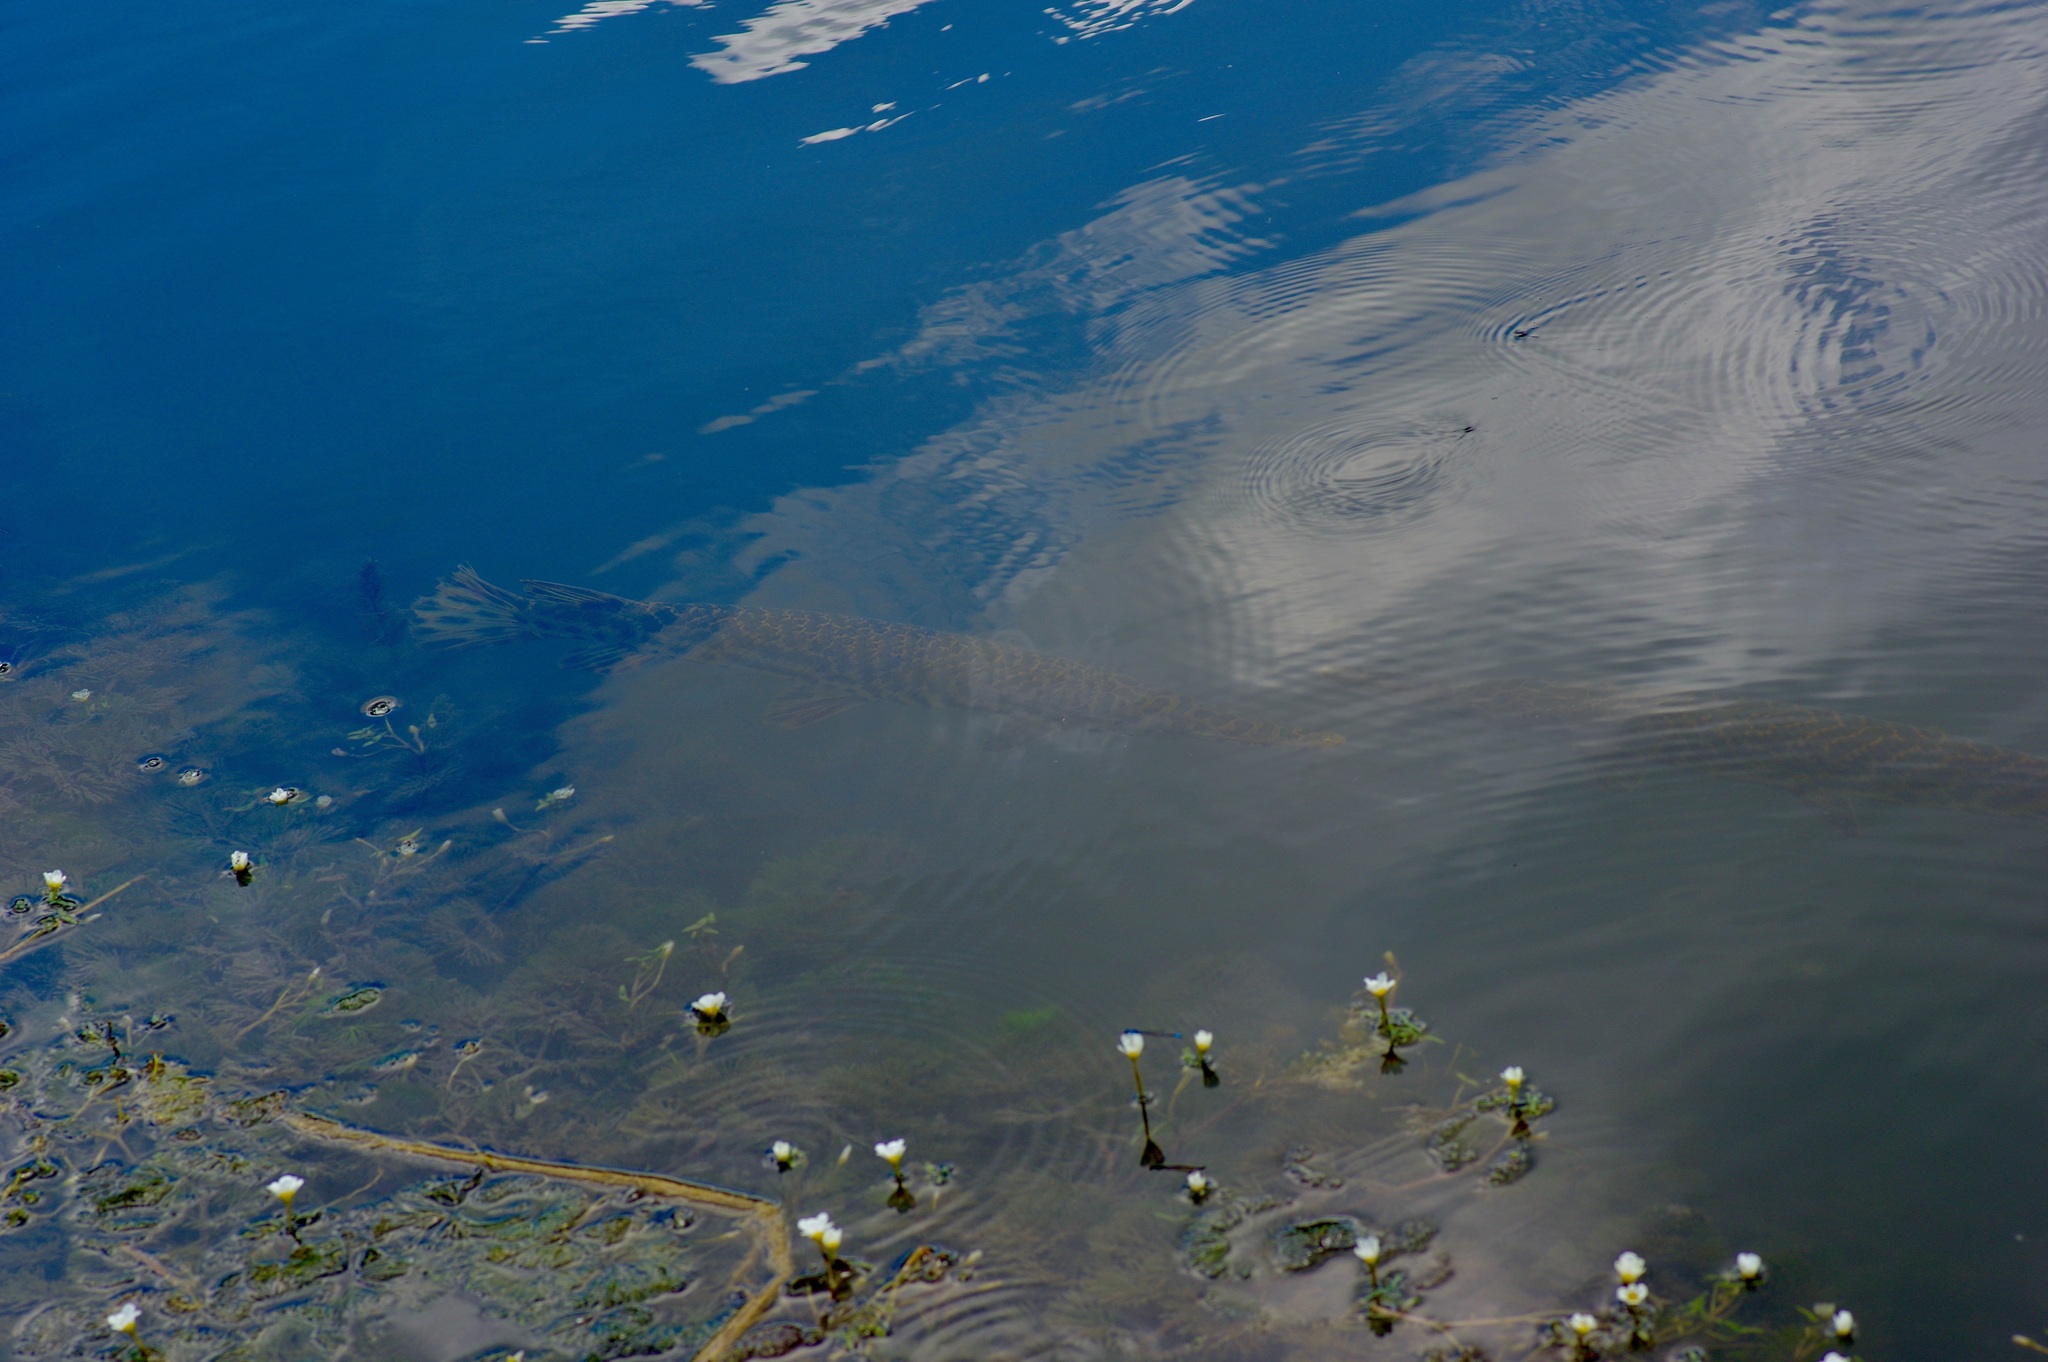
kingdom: Animalia
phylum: Chordata
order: Lepisosteiformes
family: Lepisosteidae
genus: Lepisosteus
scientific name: Lepisosteus oculatus
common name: Spotted gar
